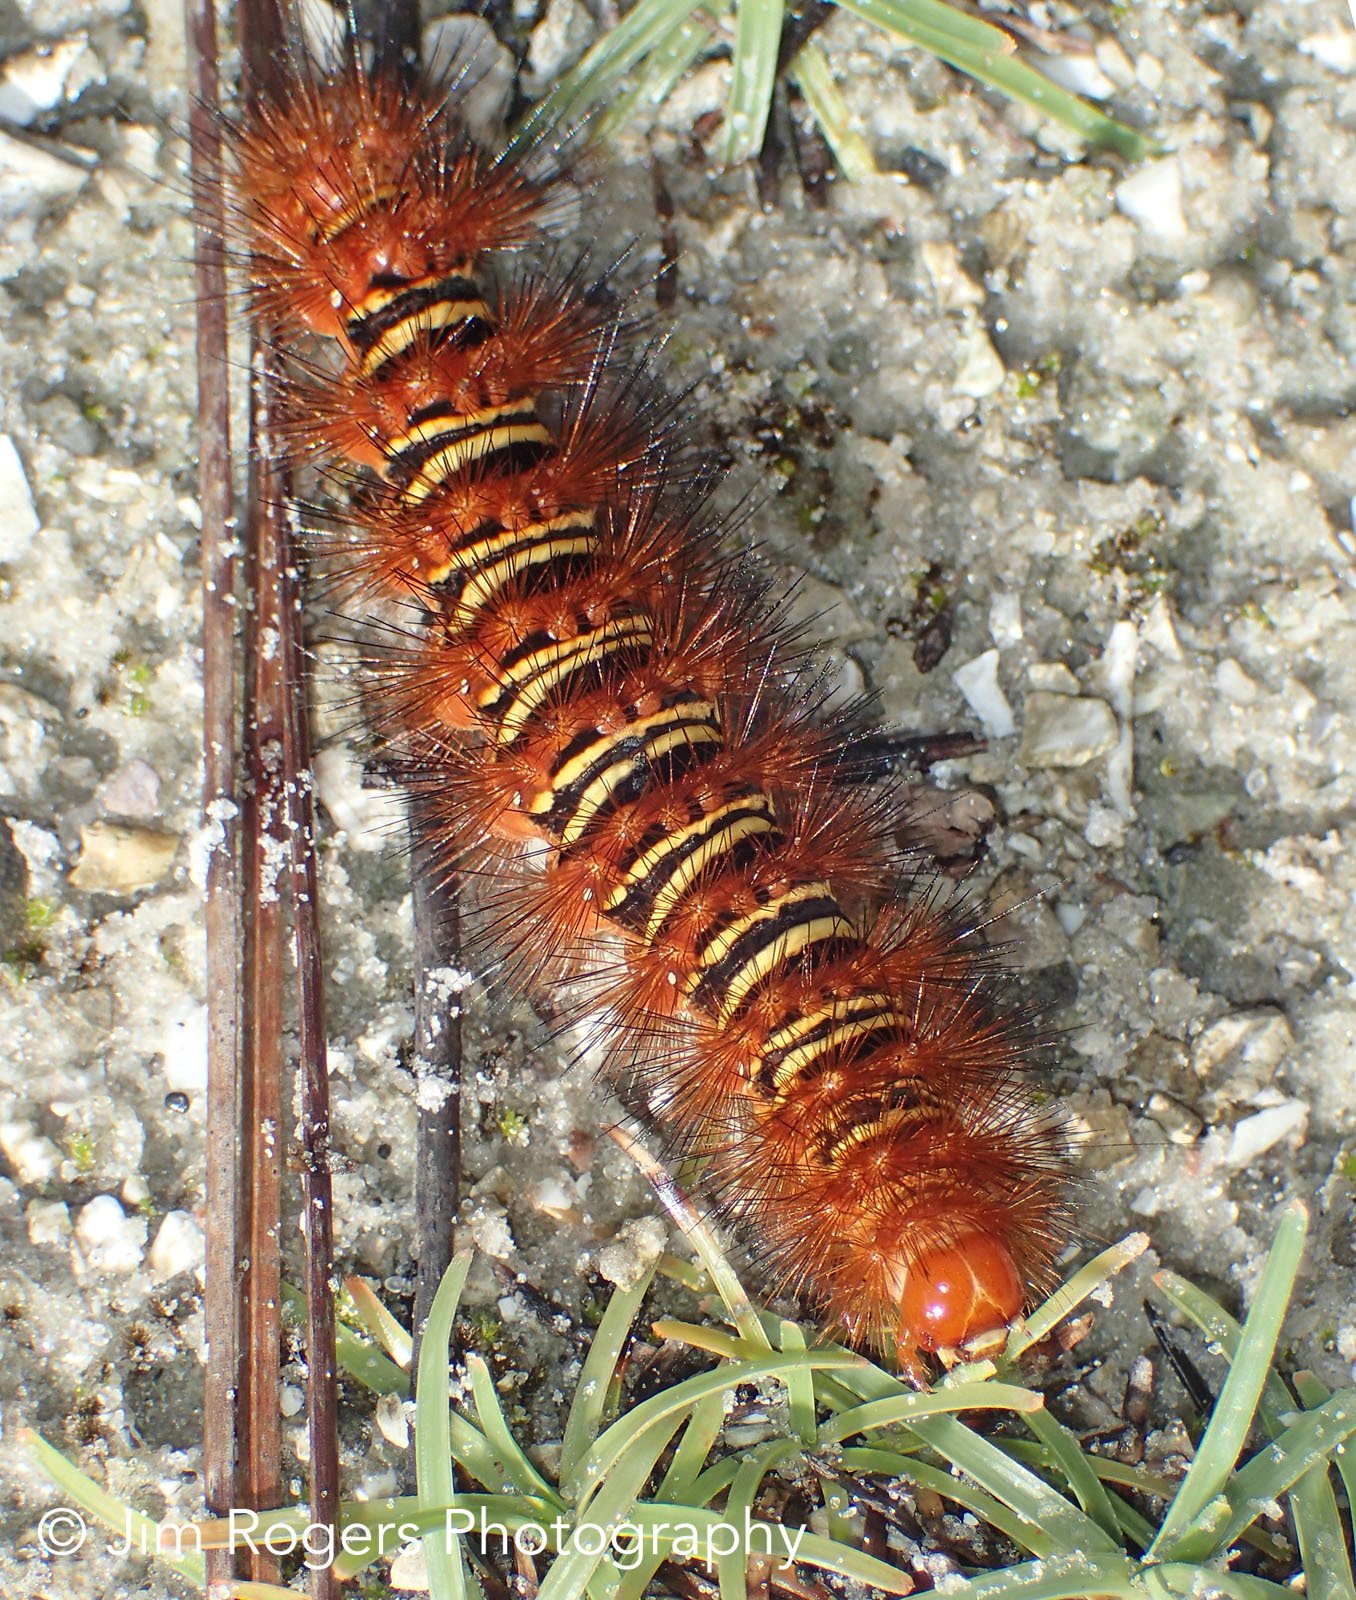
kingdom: Animalia
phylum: Arthropoda
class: Insecta
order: Lepidoptera
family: Erebidae
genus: Seirarctia
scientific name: Seirarctia echo
